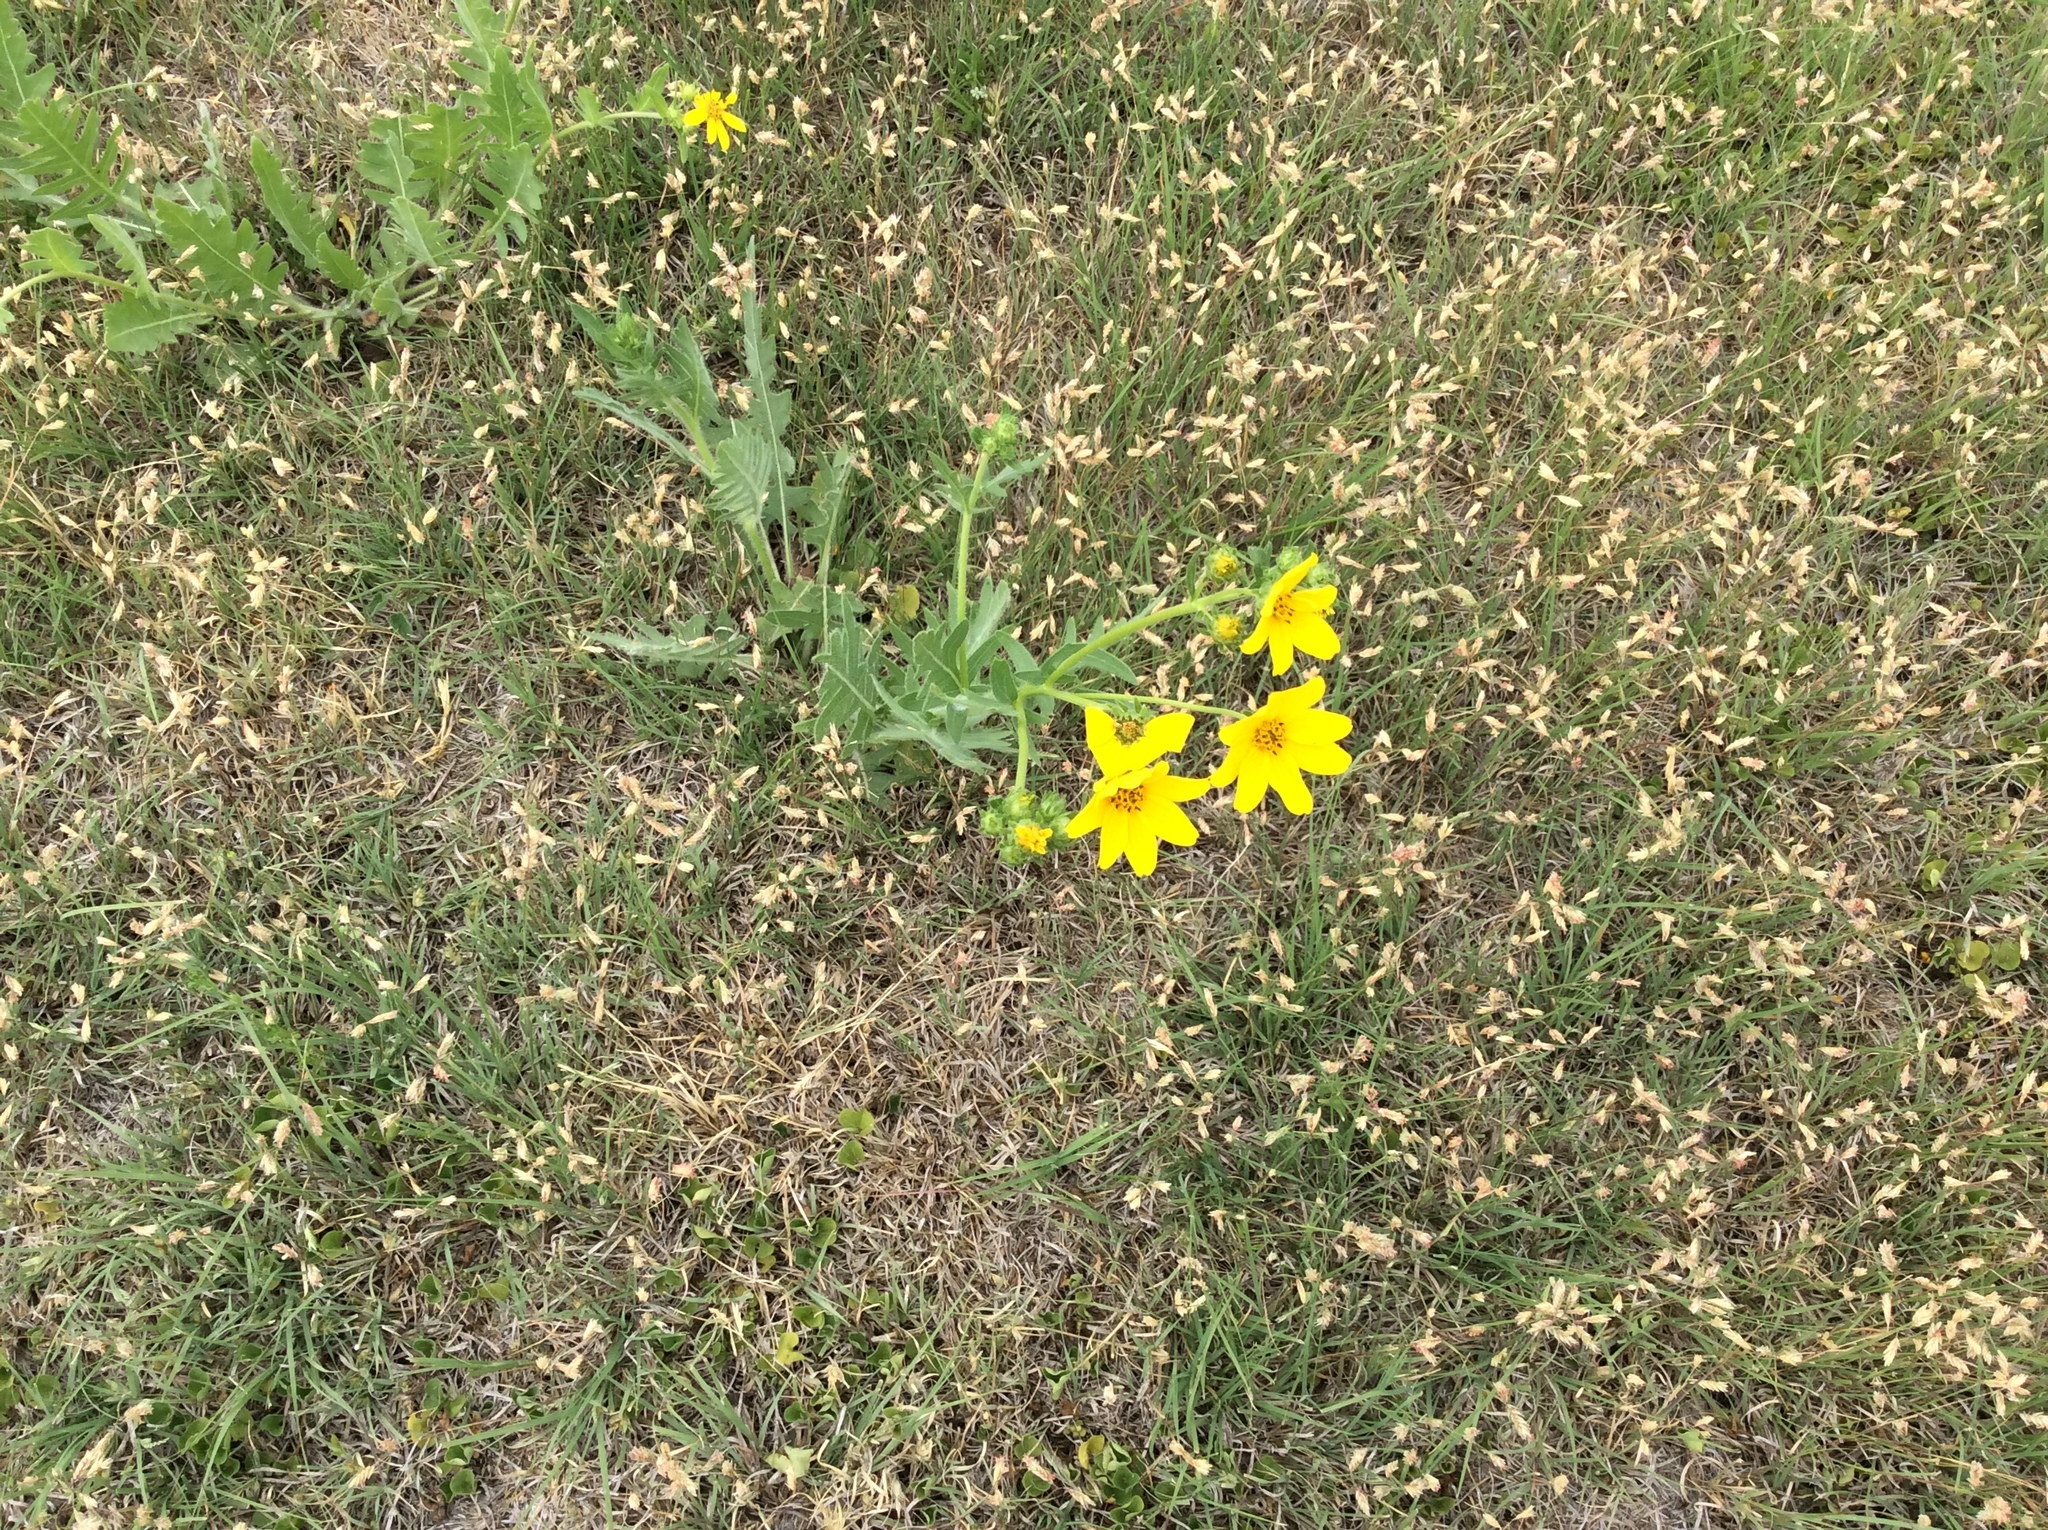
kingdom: Plantae
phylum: Tracheophyta
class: Magnoliopsida
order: Asterales
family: Asteraceae
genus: Engelmannia
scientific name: Engelmannia peristenia
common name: Engelmann's daisy
